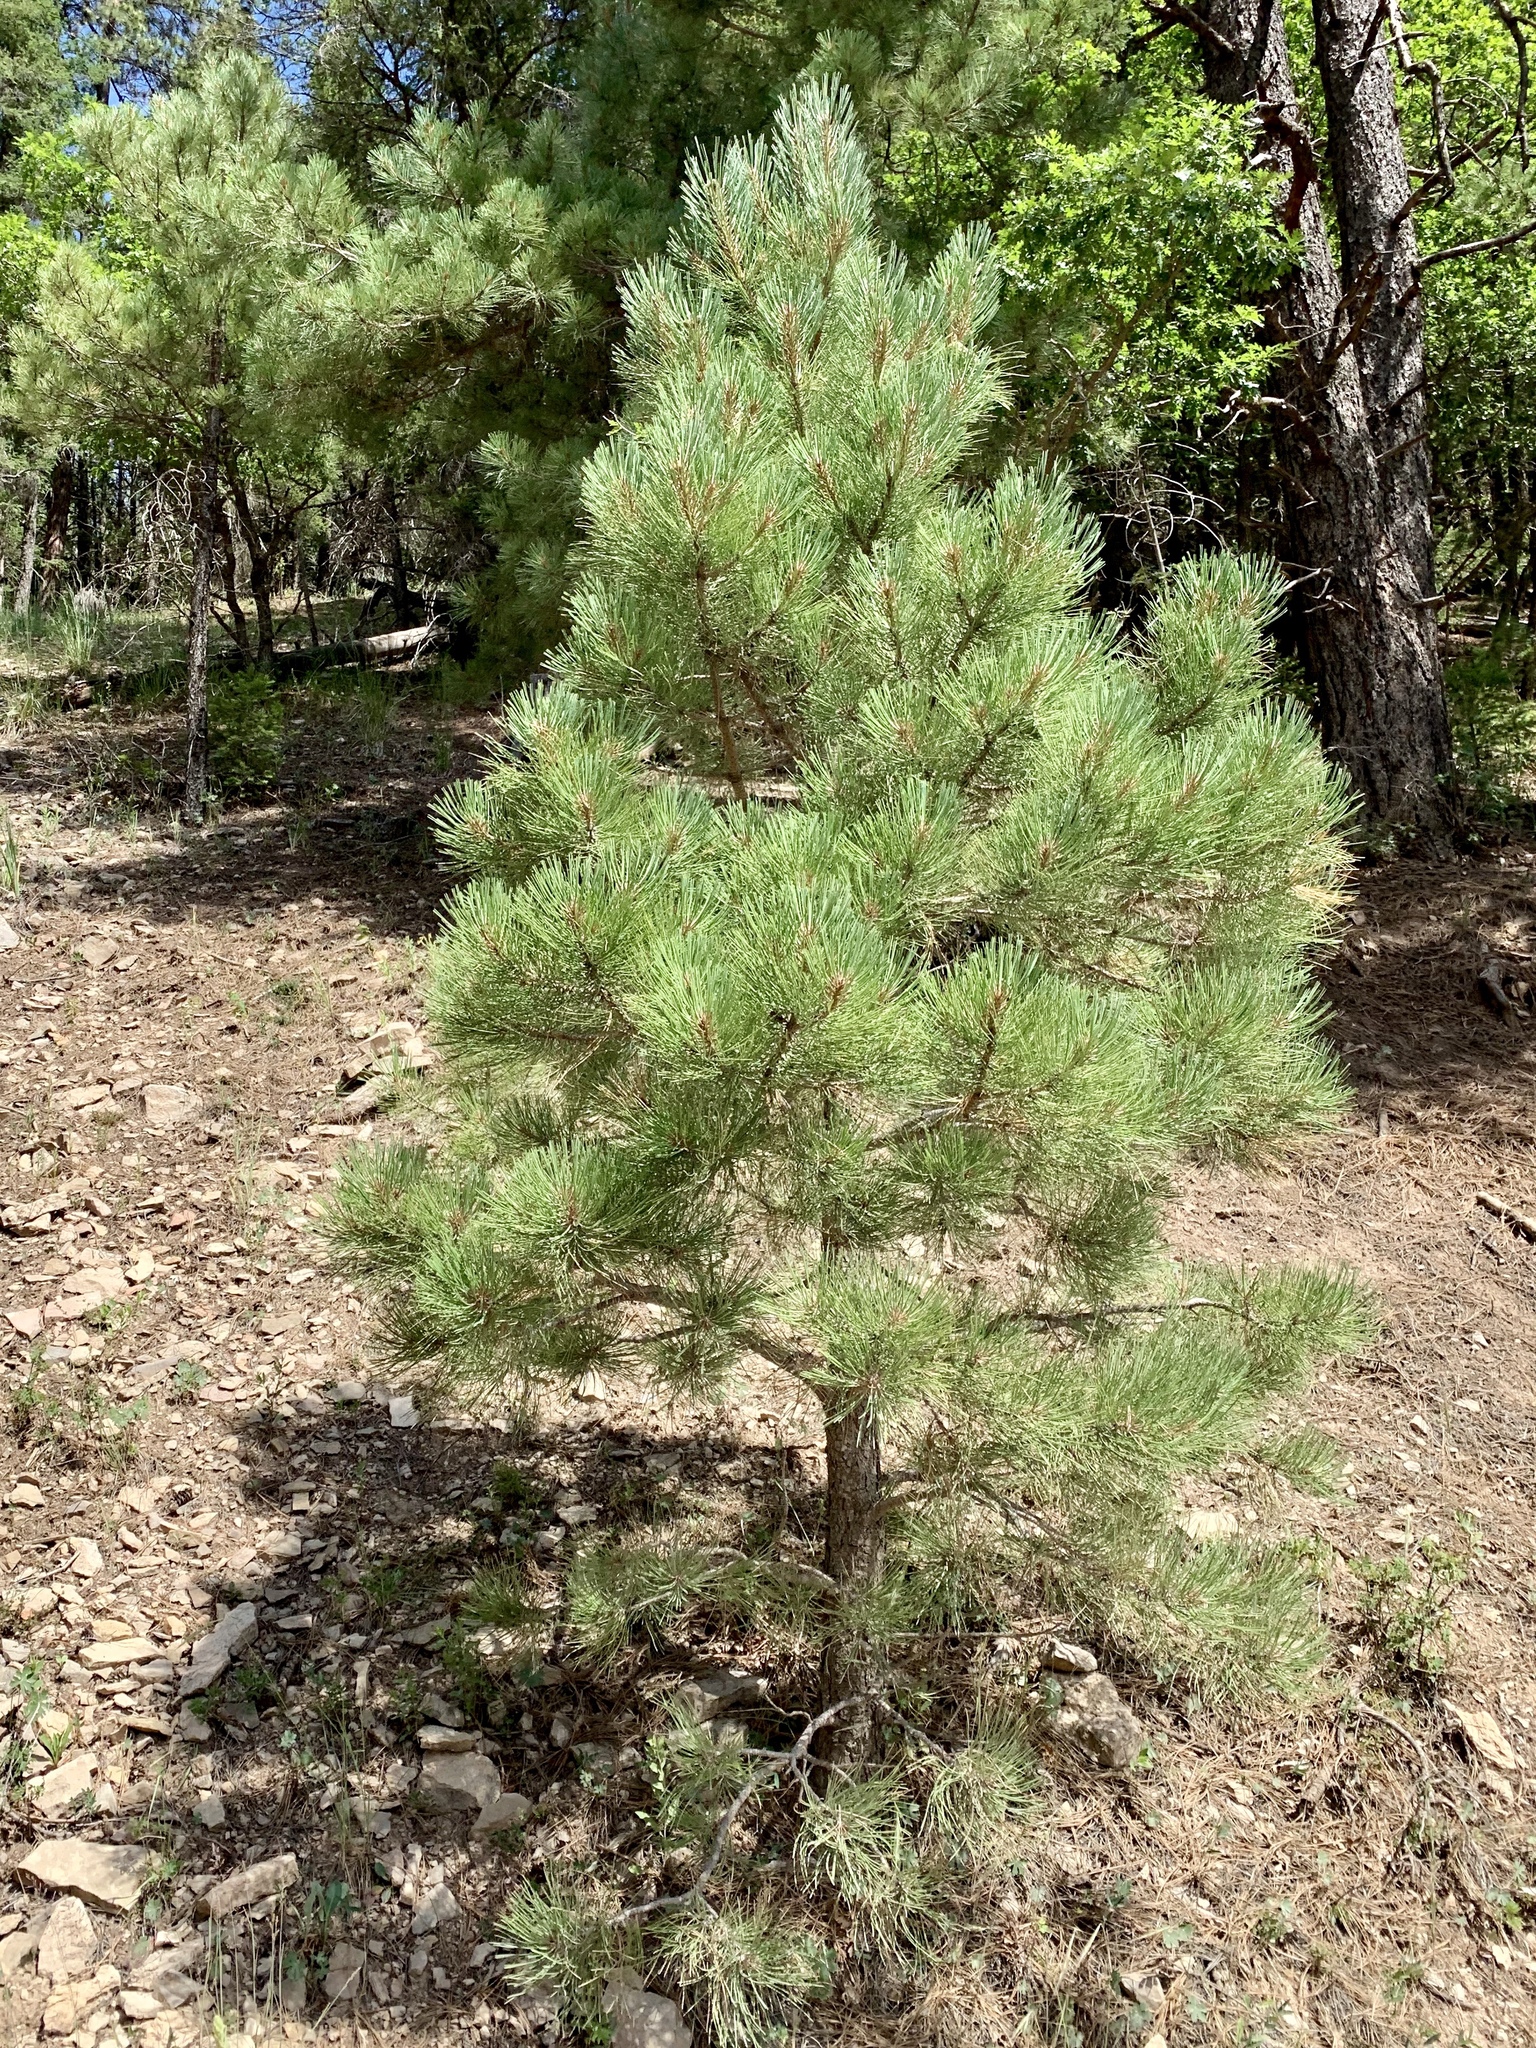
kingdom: Plantae
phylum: Tracheophyta
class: Pinopsida
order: Pinales
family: Pinaceae
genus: Pinus
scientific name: Pinus ponderosa
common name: Western yellow-pine
